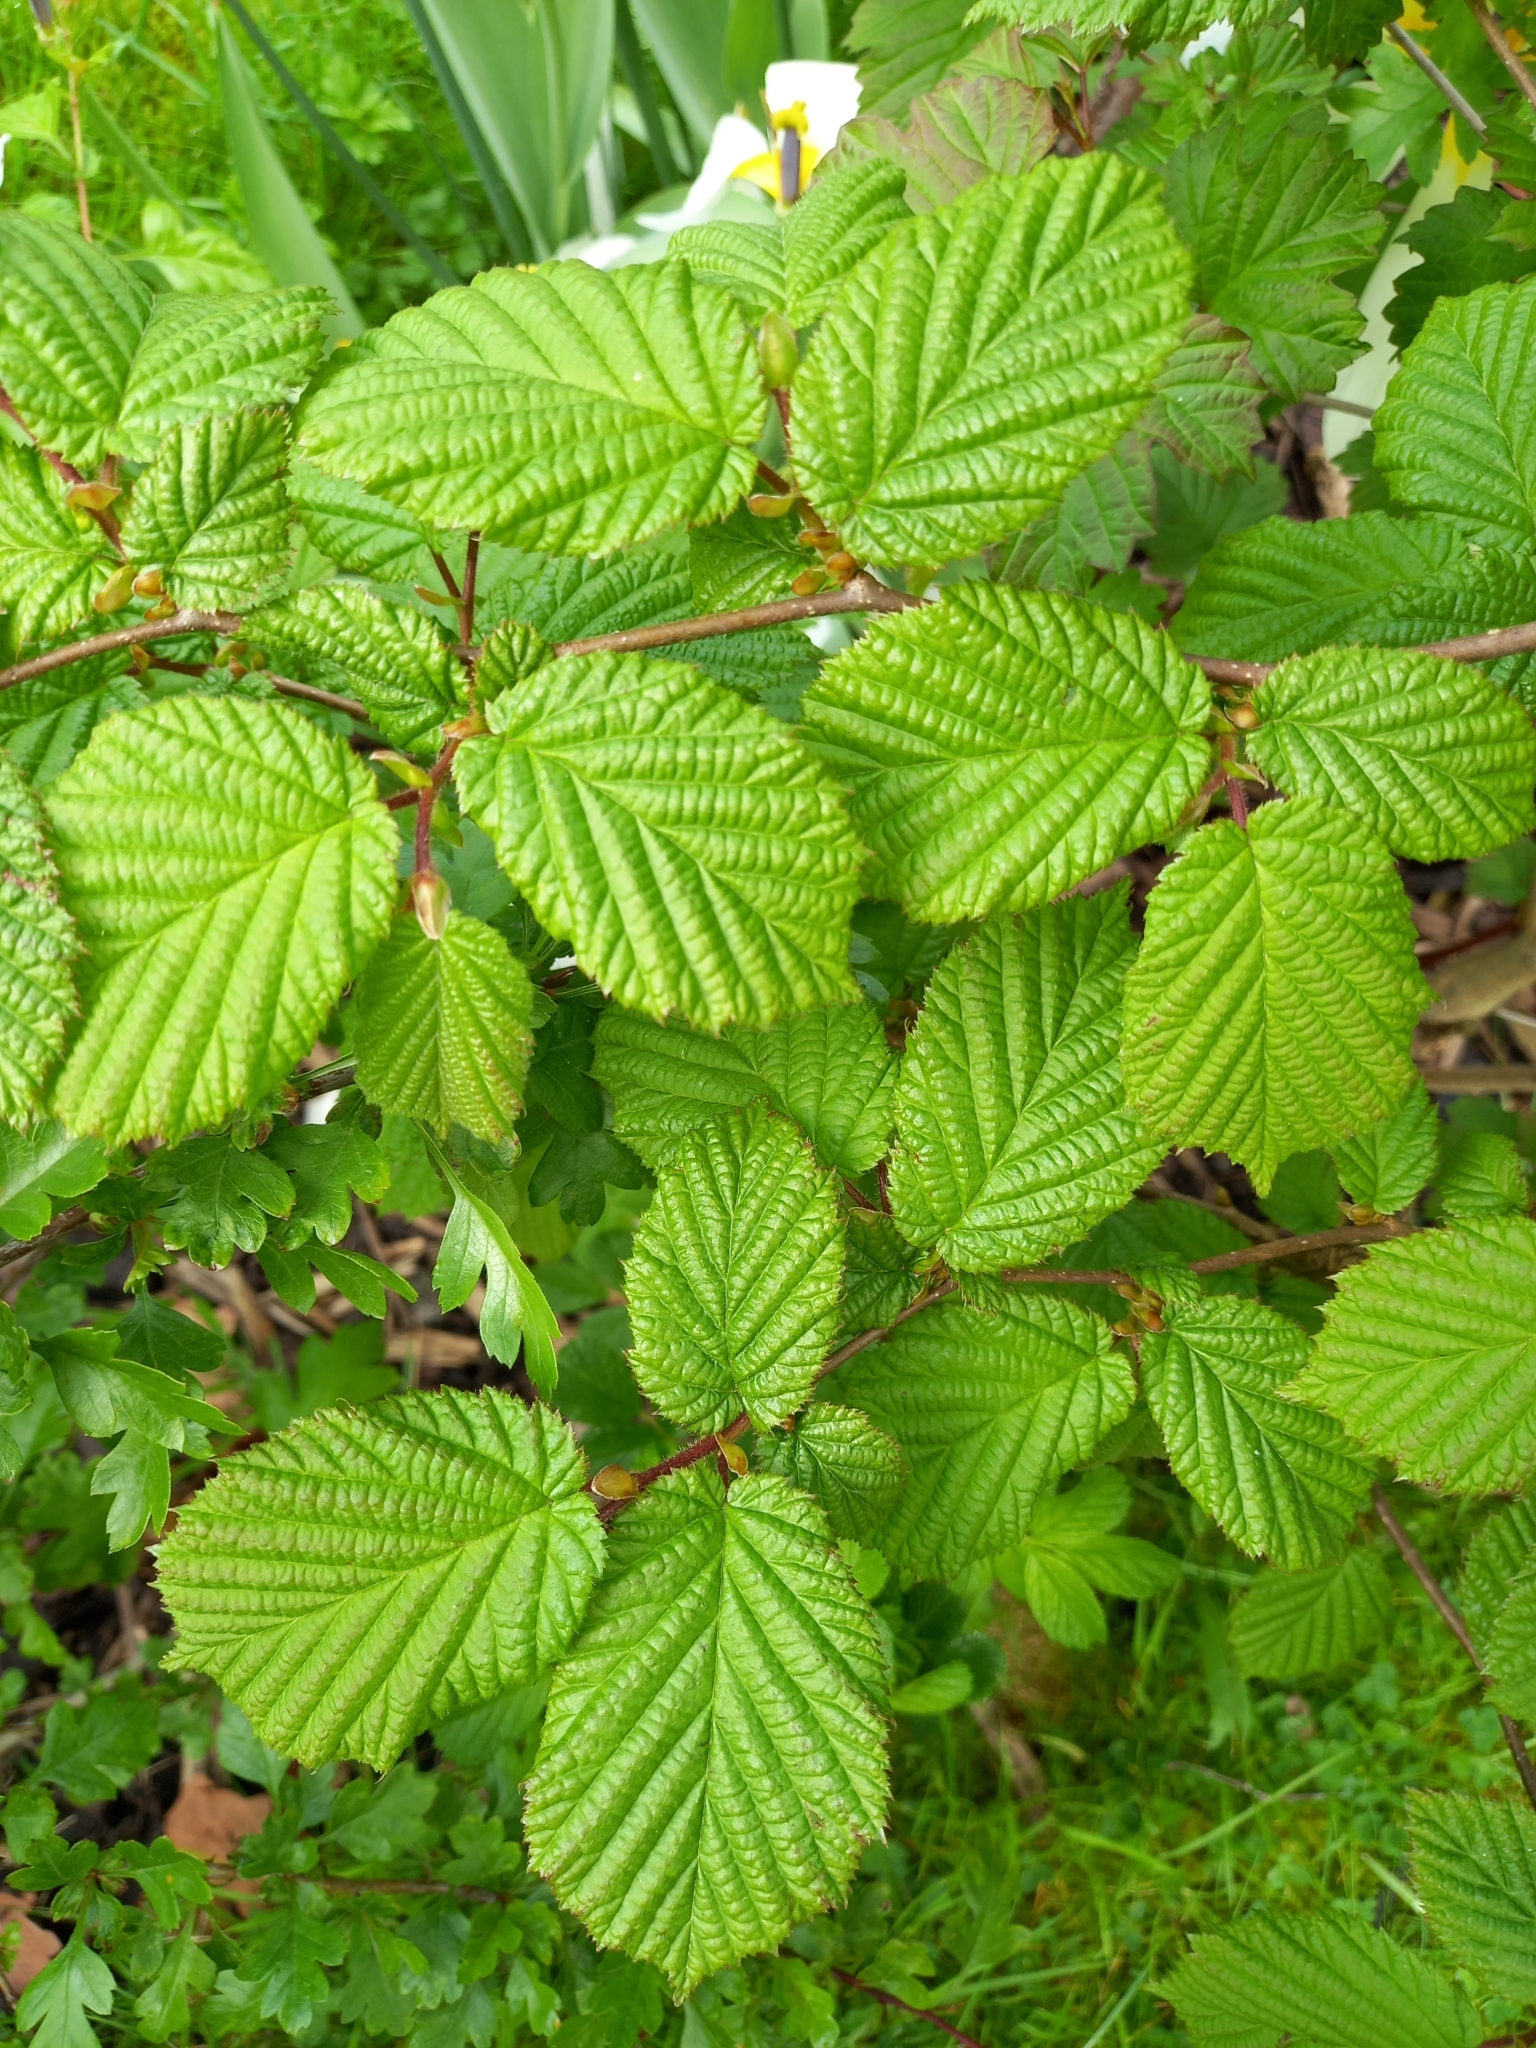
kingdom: Plantae
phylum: Tracheophyta
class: Magnoliopsida
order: Fagales
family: Betulaceae
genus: Corylus
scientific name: Corylus avellana
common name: European hazel
